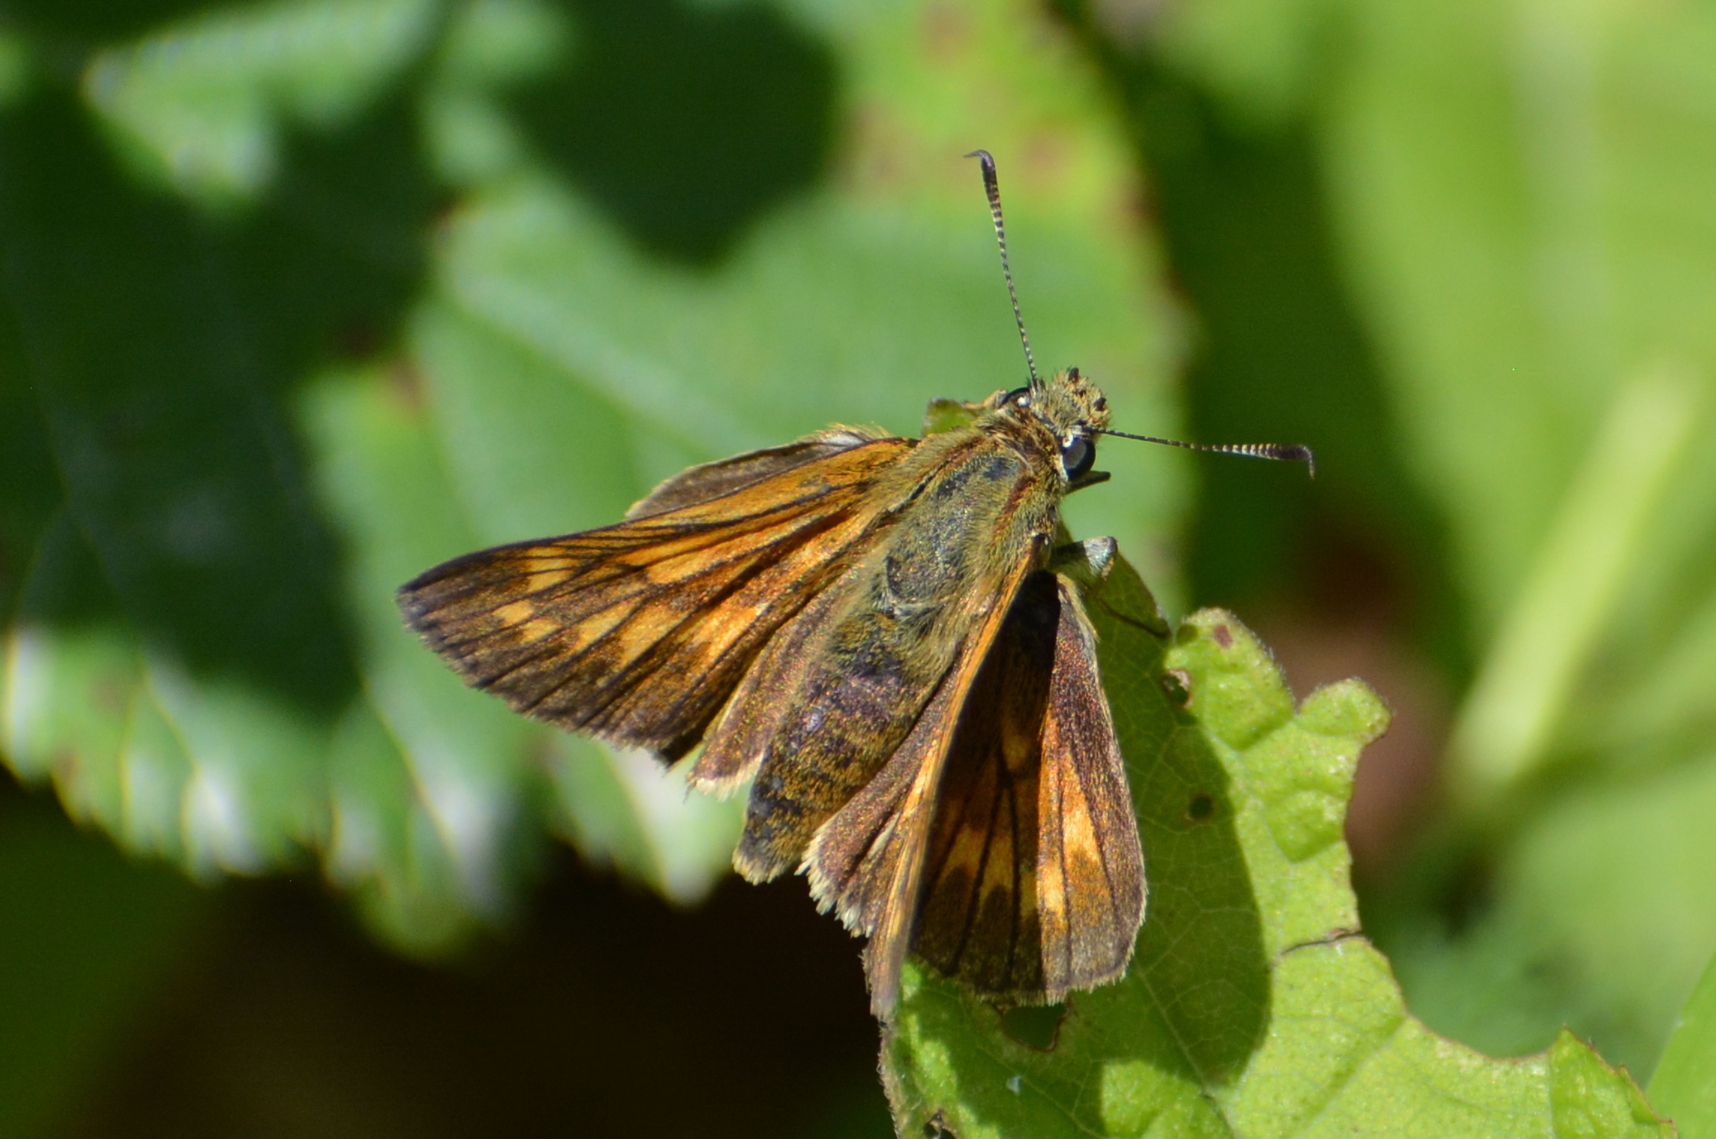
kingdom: Animalia
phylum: Arthropoda
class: Insecta
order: Lepidoptera
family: Hesperiidae
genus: Ochlodes
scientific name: Ochlodes venata
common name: Large skipper
